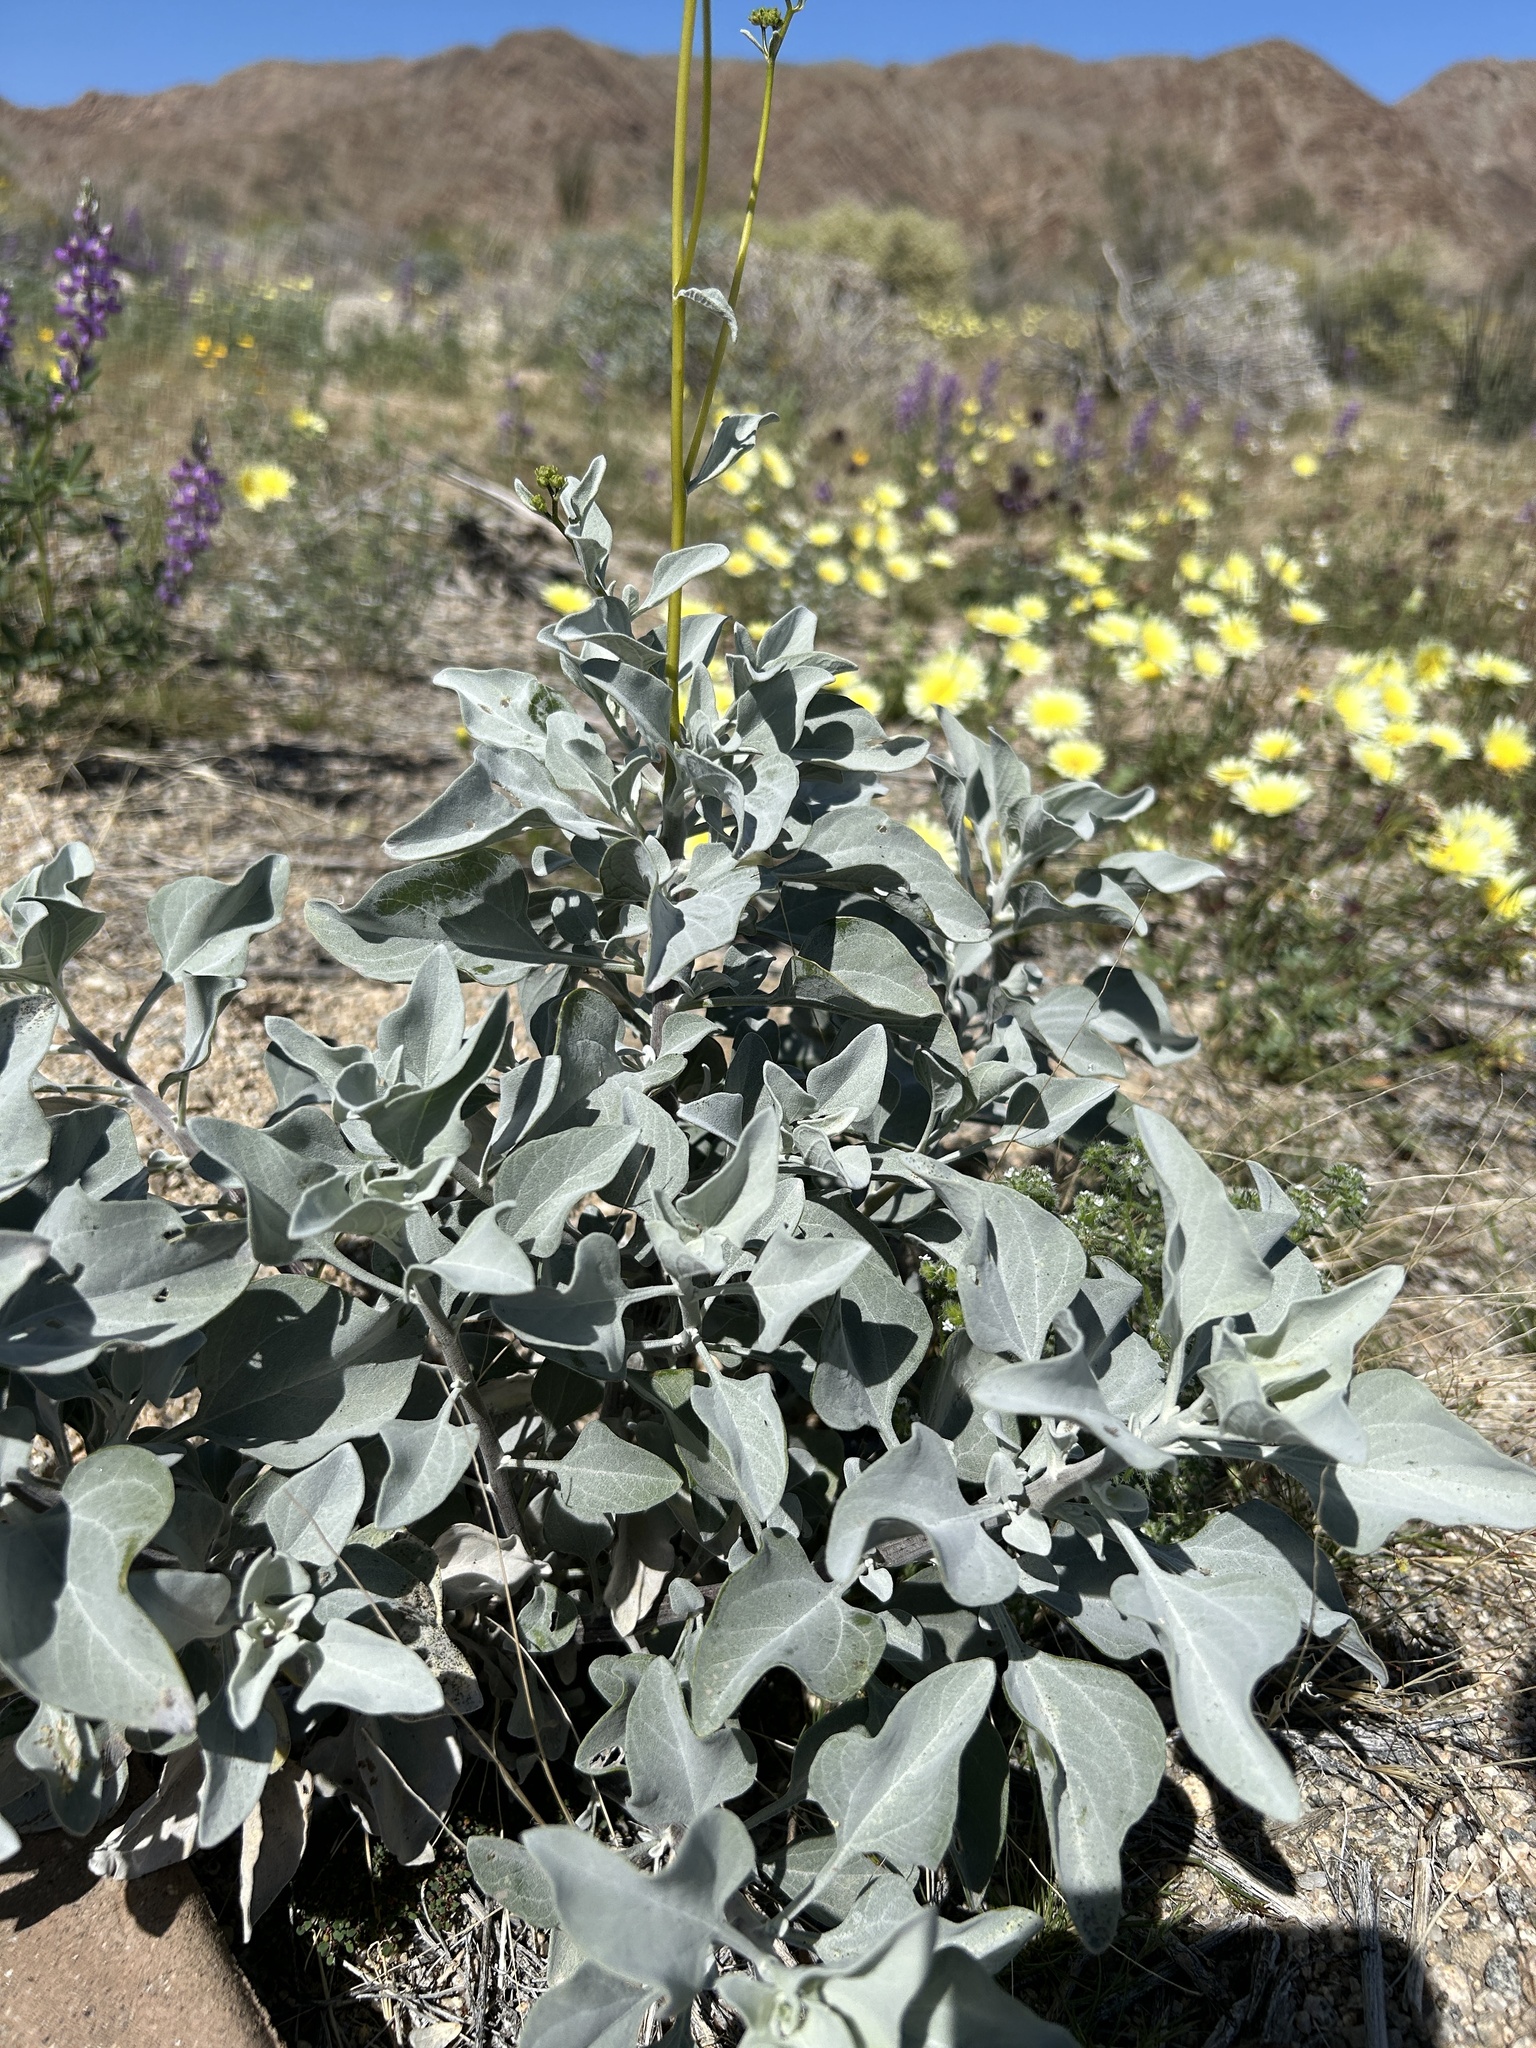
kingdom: Plantae
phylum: Tracheophyta
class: Magnoliopsida
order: Asterales
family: Asteraceae
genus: Encelia
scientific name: Encelia farinosa
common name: Brittlebush
